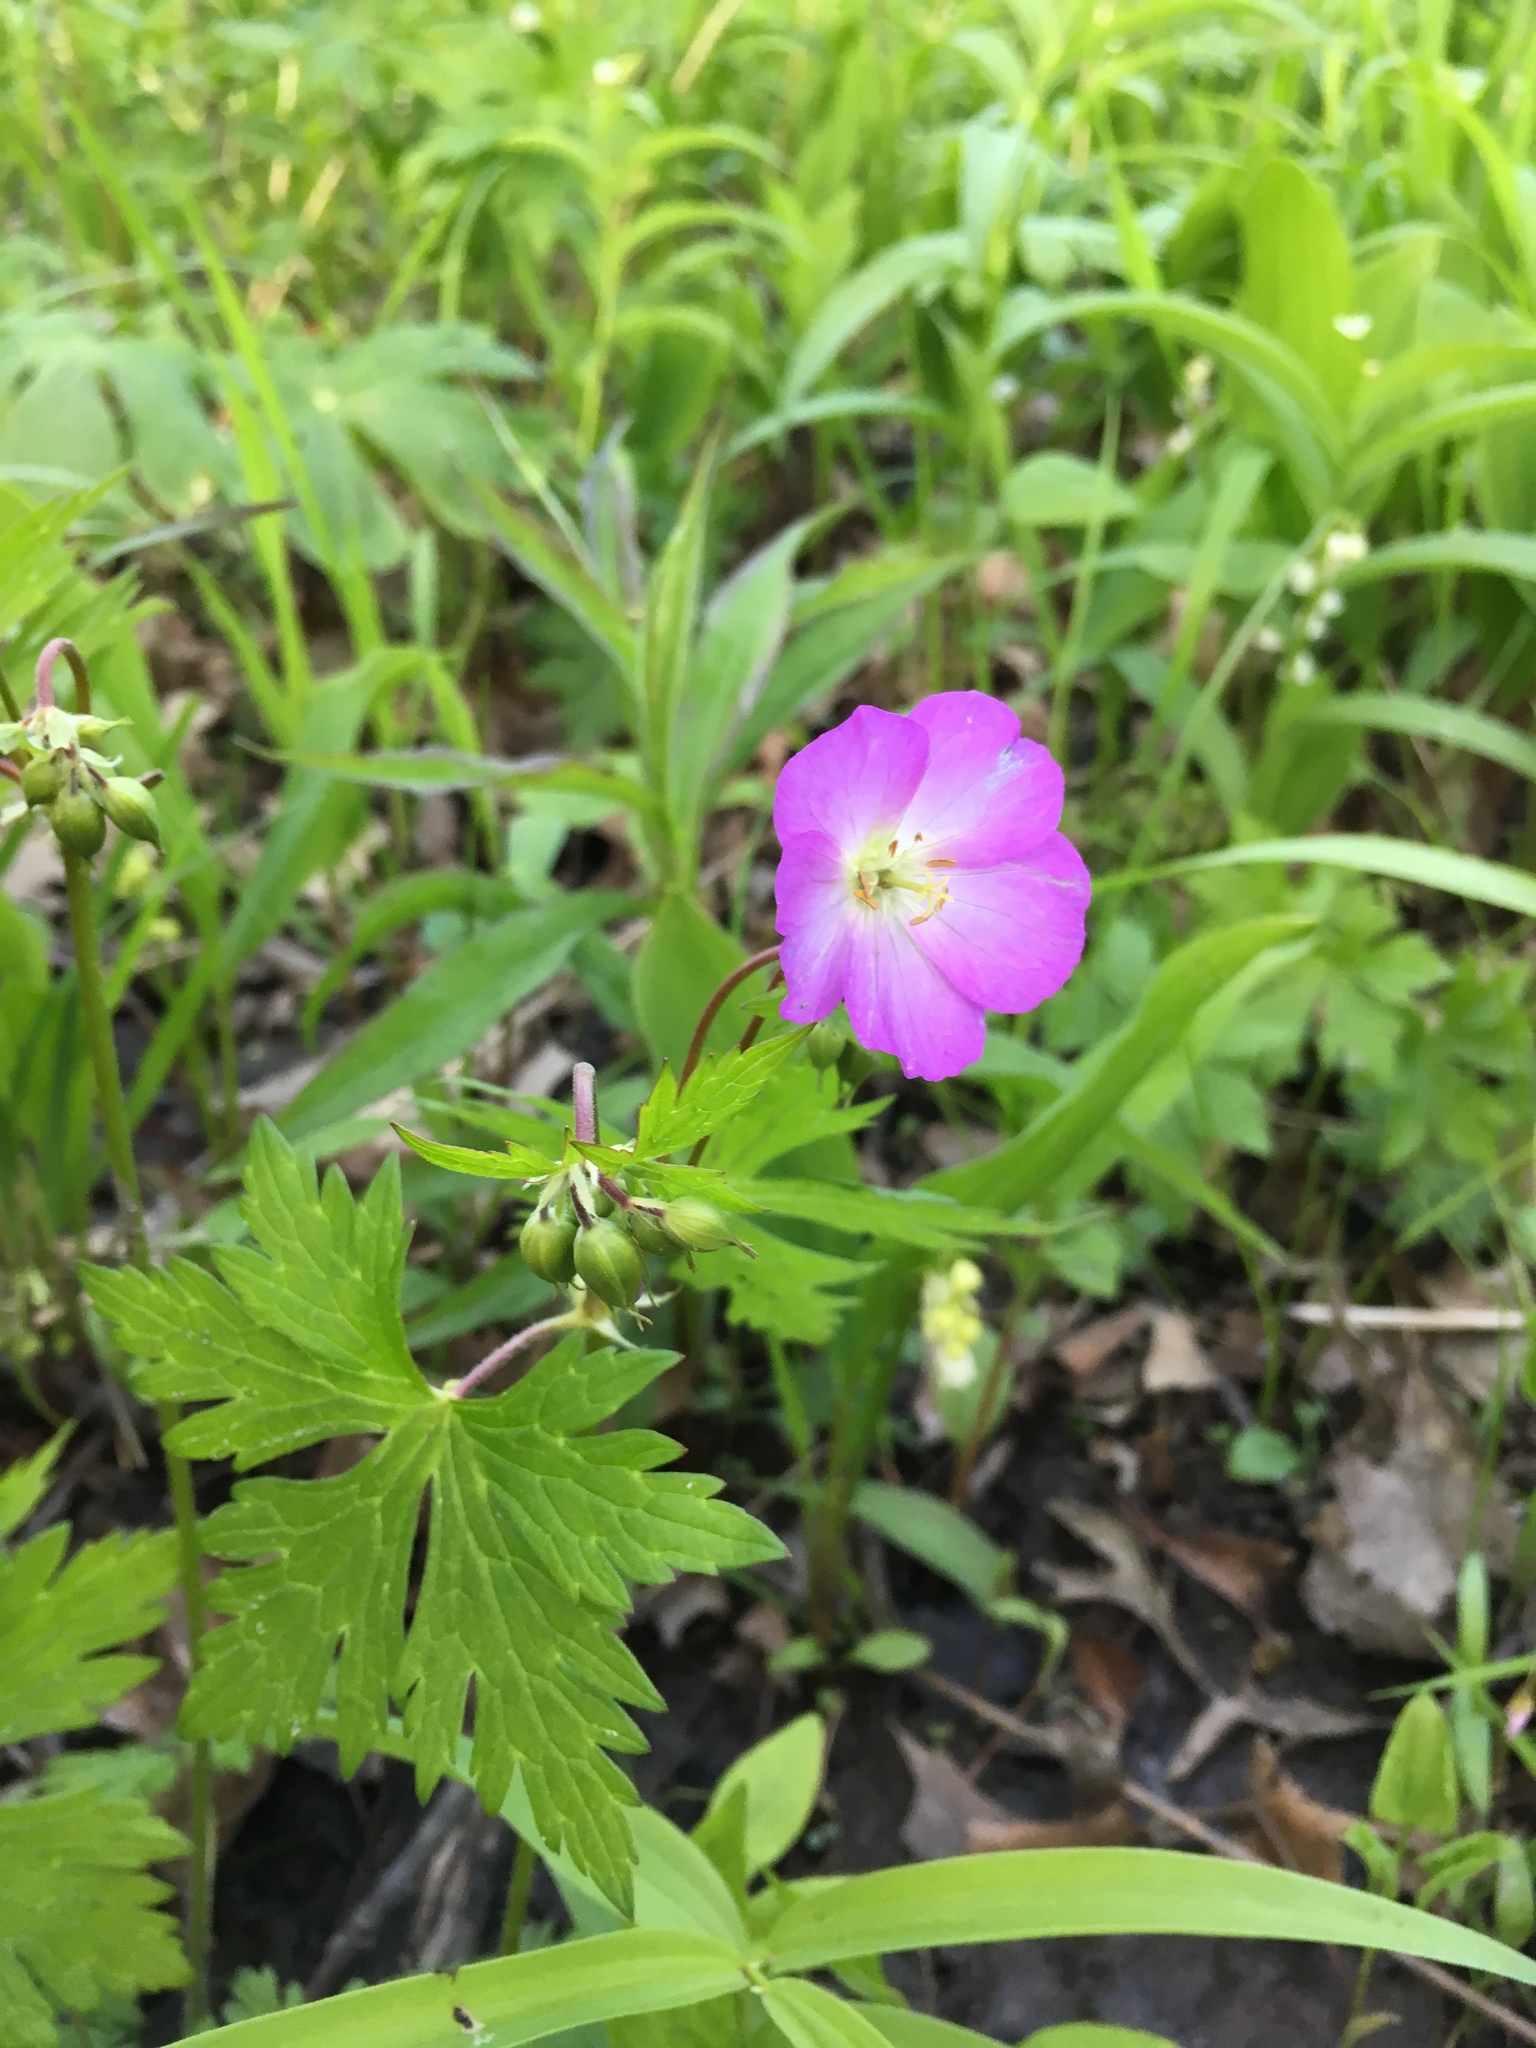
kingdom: Plantae
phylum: Tracheophyta
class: Magnoliopsida
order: Geraniales
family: Geraniaceae
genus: Geranium
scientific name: Geranium maculatum
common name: Spotted geranium
